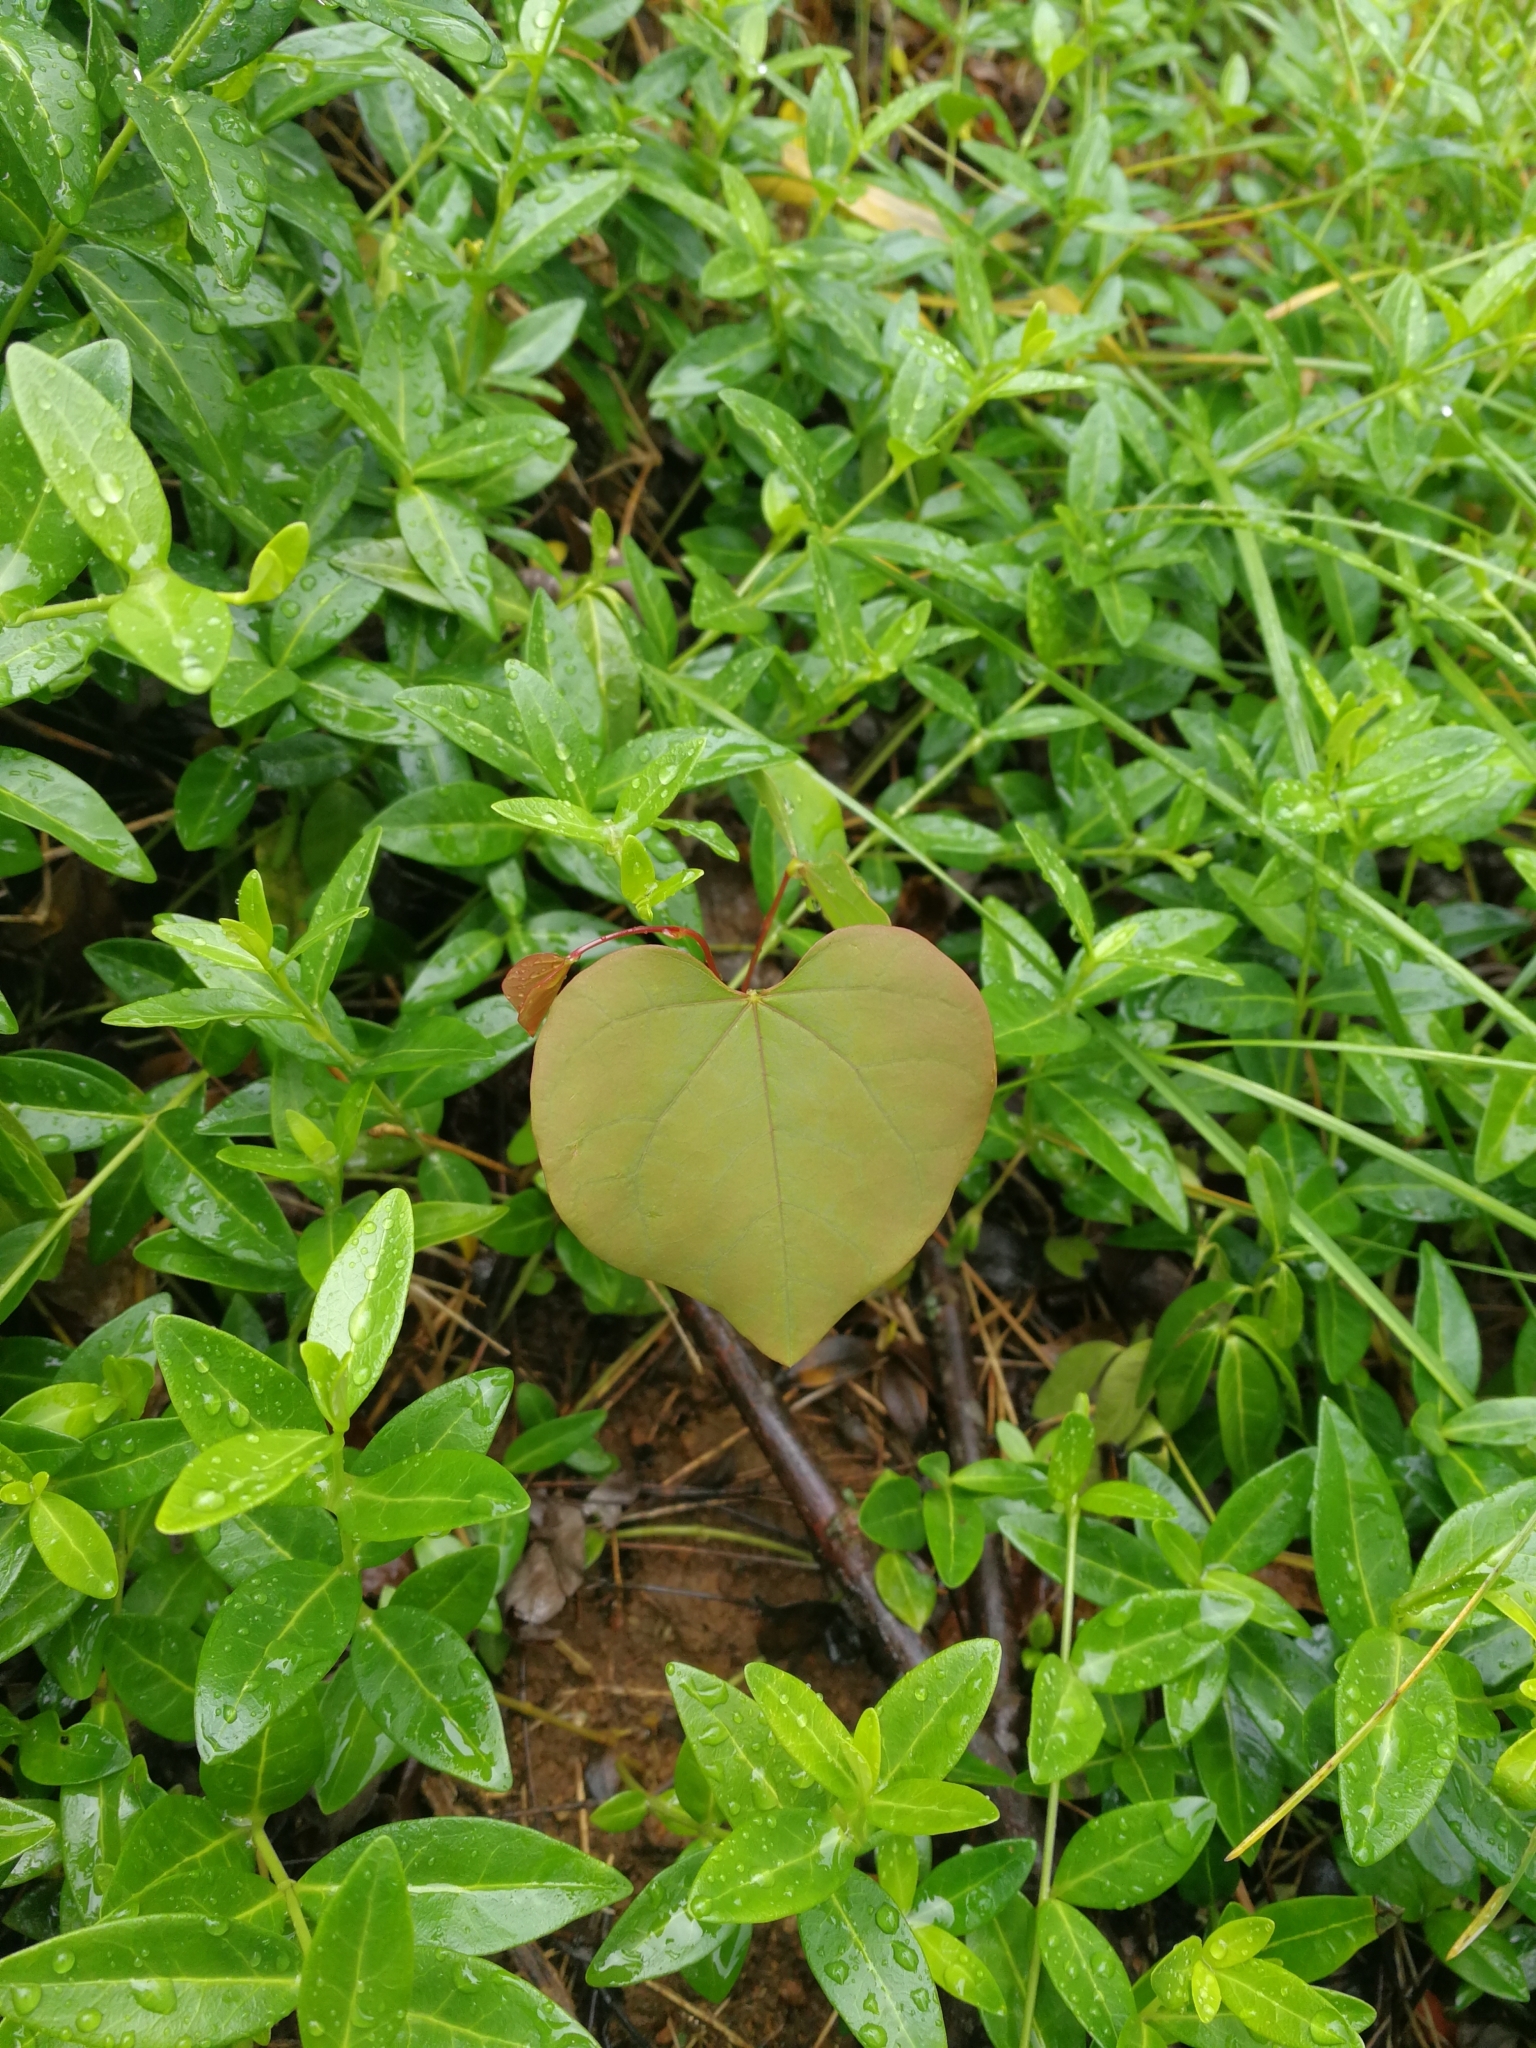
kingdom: Plantae
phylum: Tracheophyta
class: Magnoliopsida
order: Fabales
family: Fabaceae
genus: Cercis
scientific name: Cercis canadensis
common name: Eastern redbud
